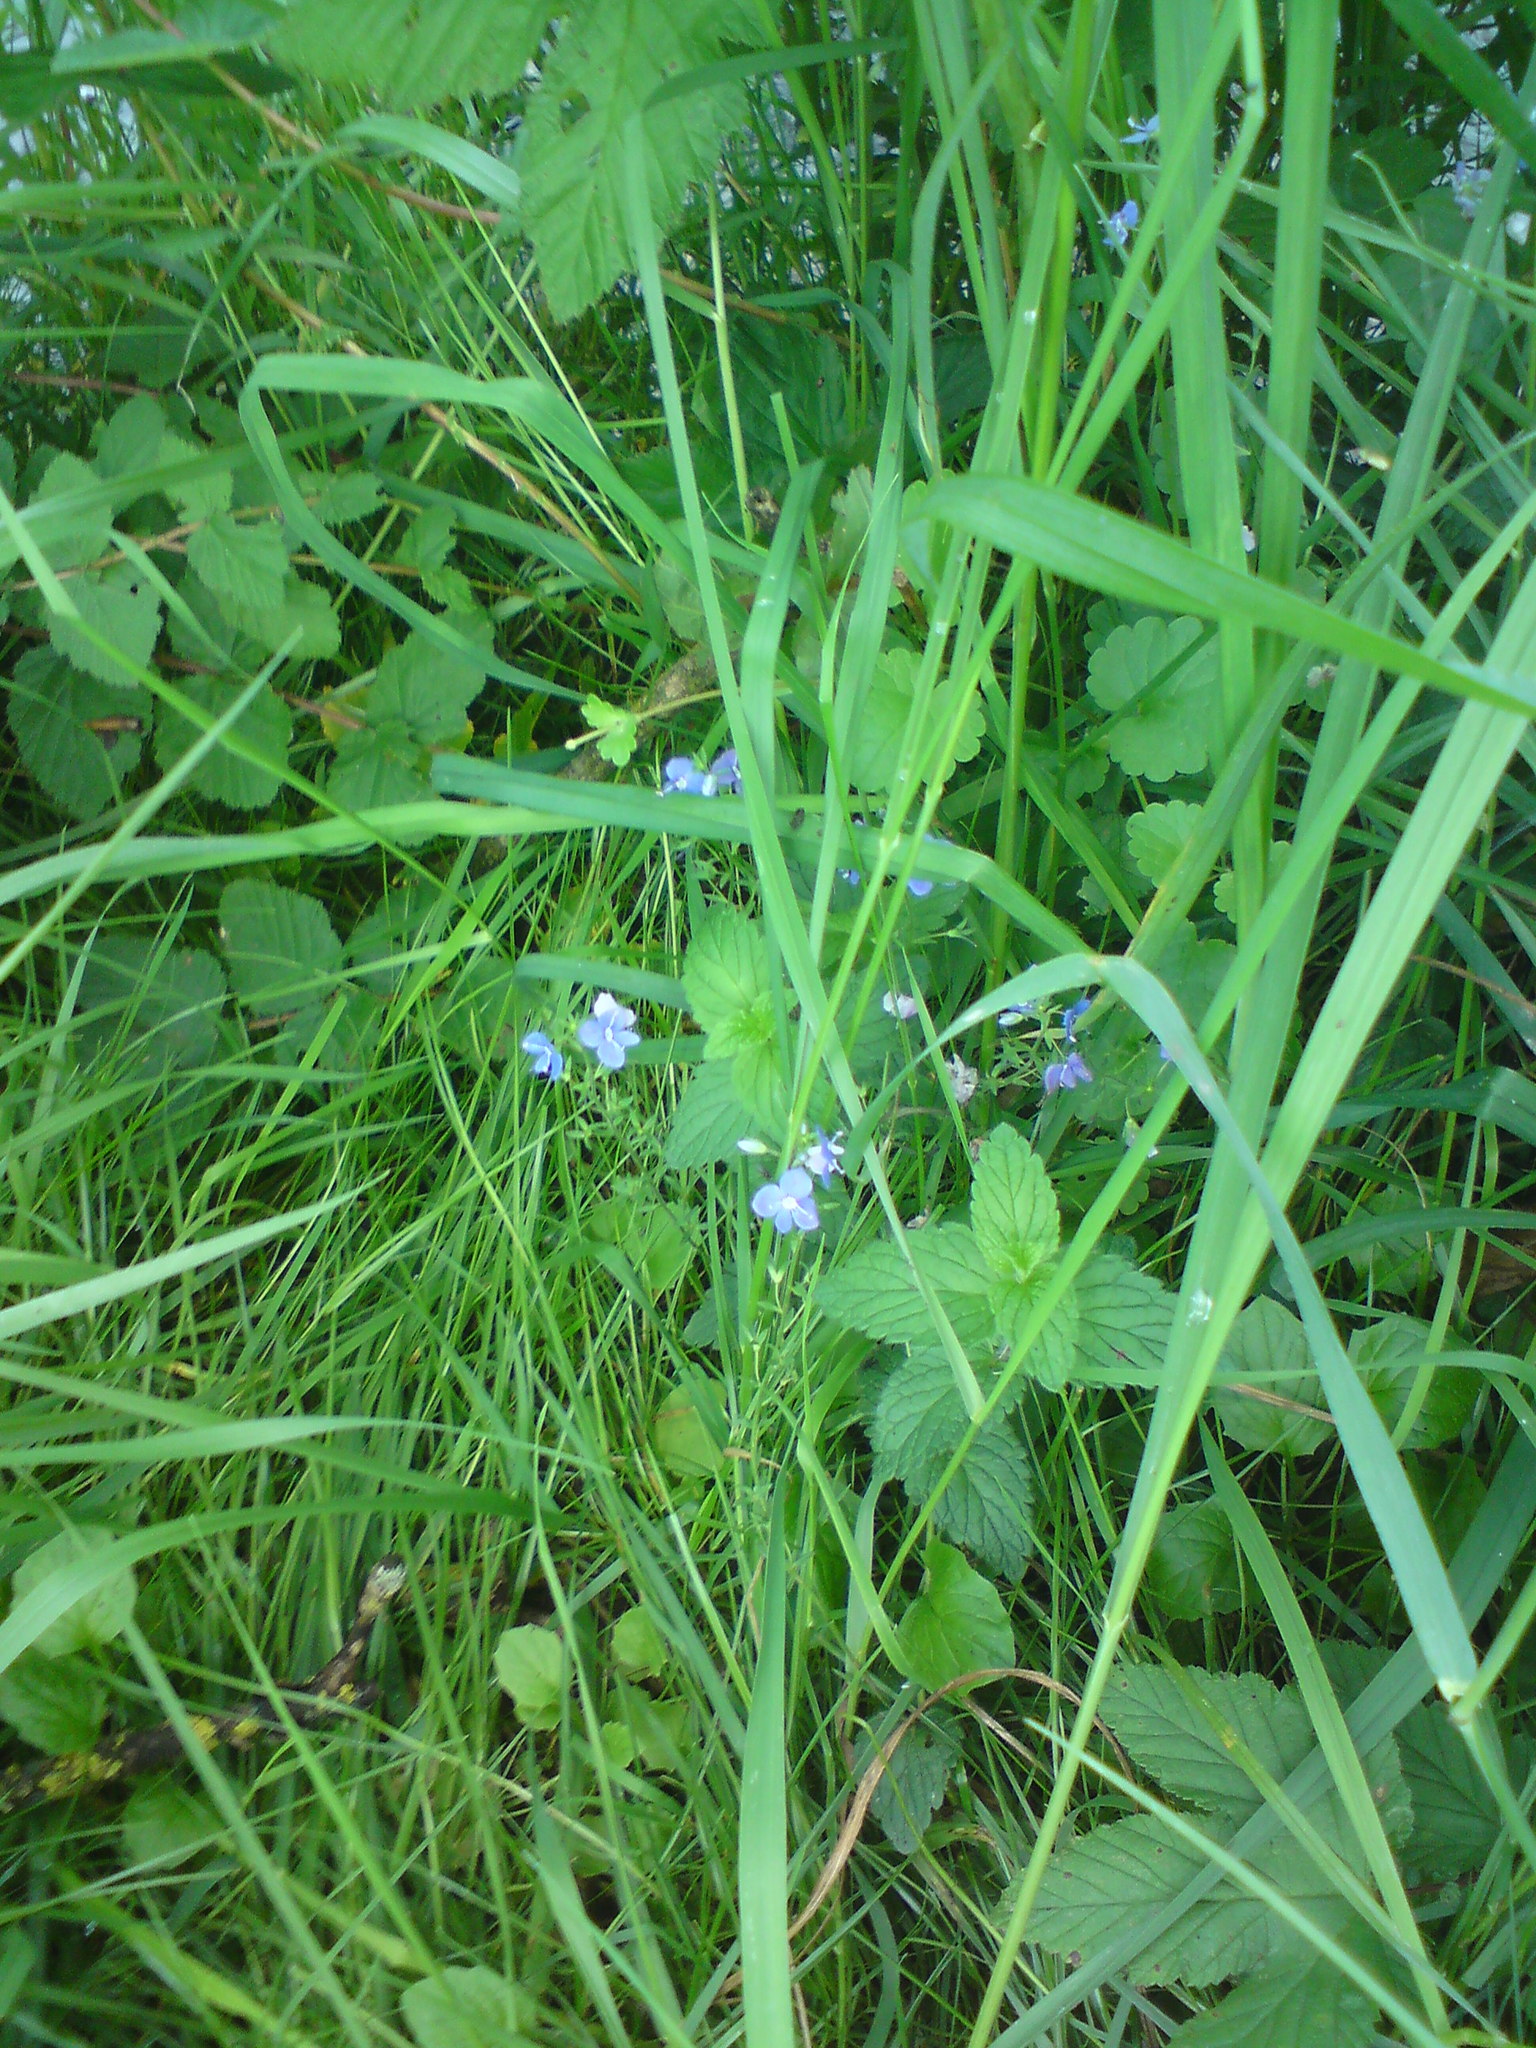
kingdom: Plantae
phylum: Tracheophyta
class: Magnoliopsida
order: Lamiales
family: Plantaginaceae
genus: Veronica
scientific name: Veronica chamaedrys
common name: Germander speedwell
